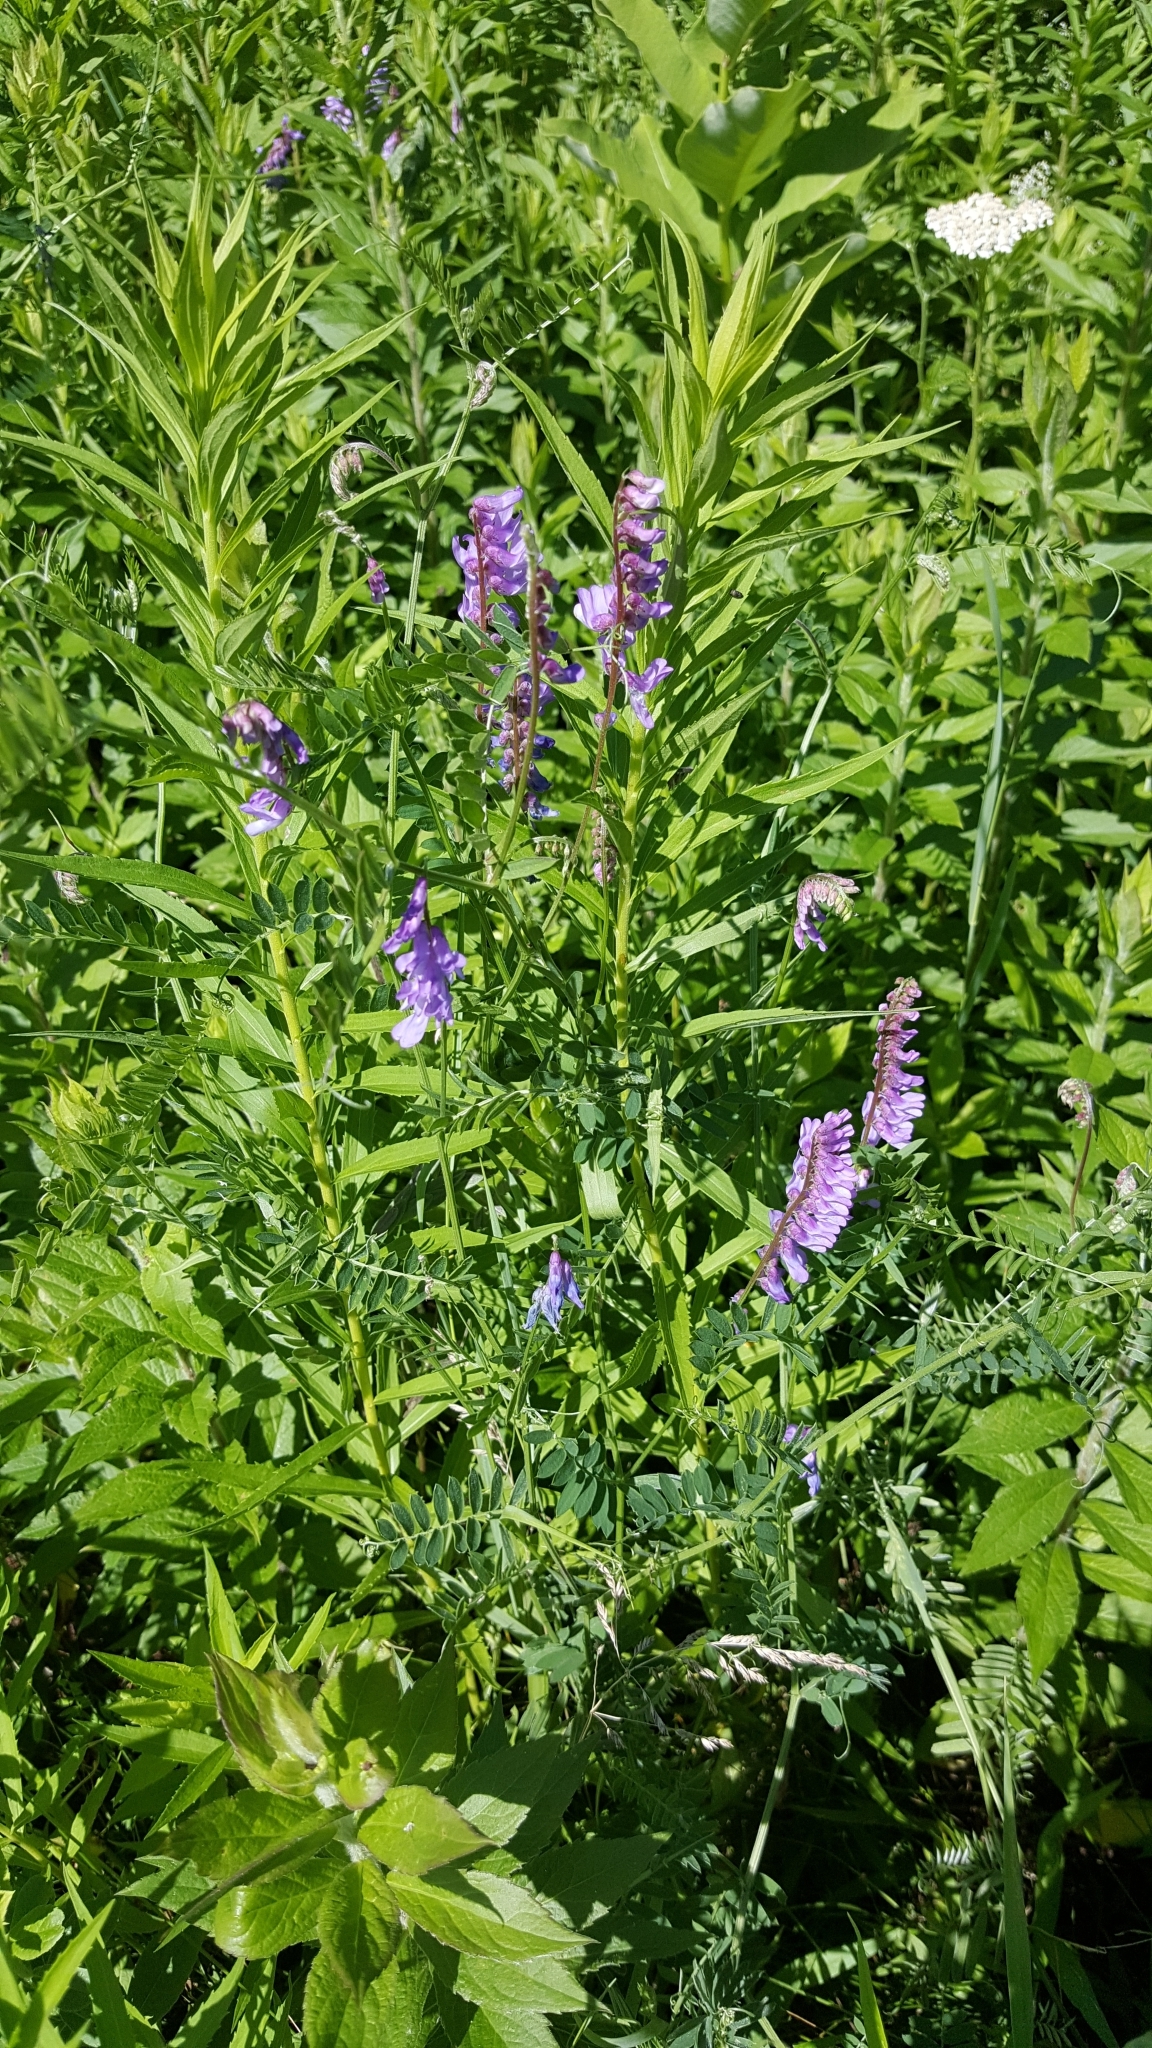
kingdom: Plantae
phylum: Tracheophyta
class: Magnoliopsida
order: Fabales
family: Fabaceae
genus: Vicia
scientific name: Vicia cracca
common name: Bird vetch
